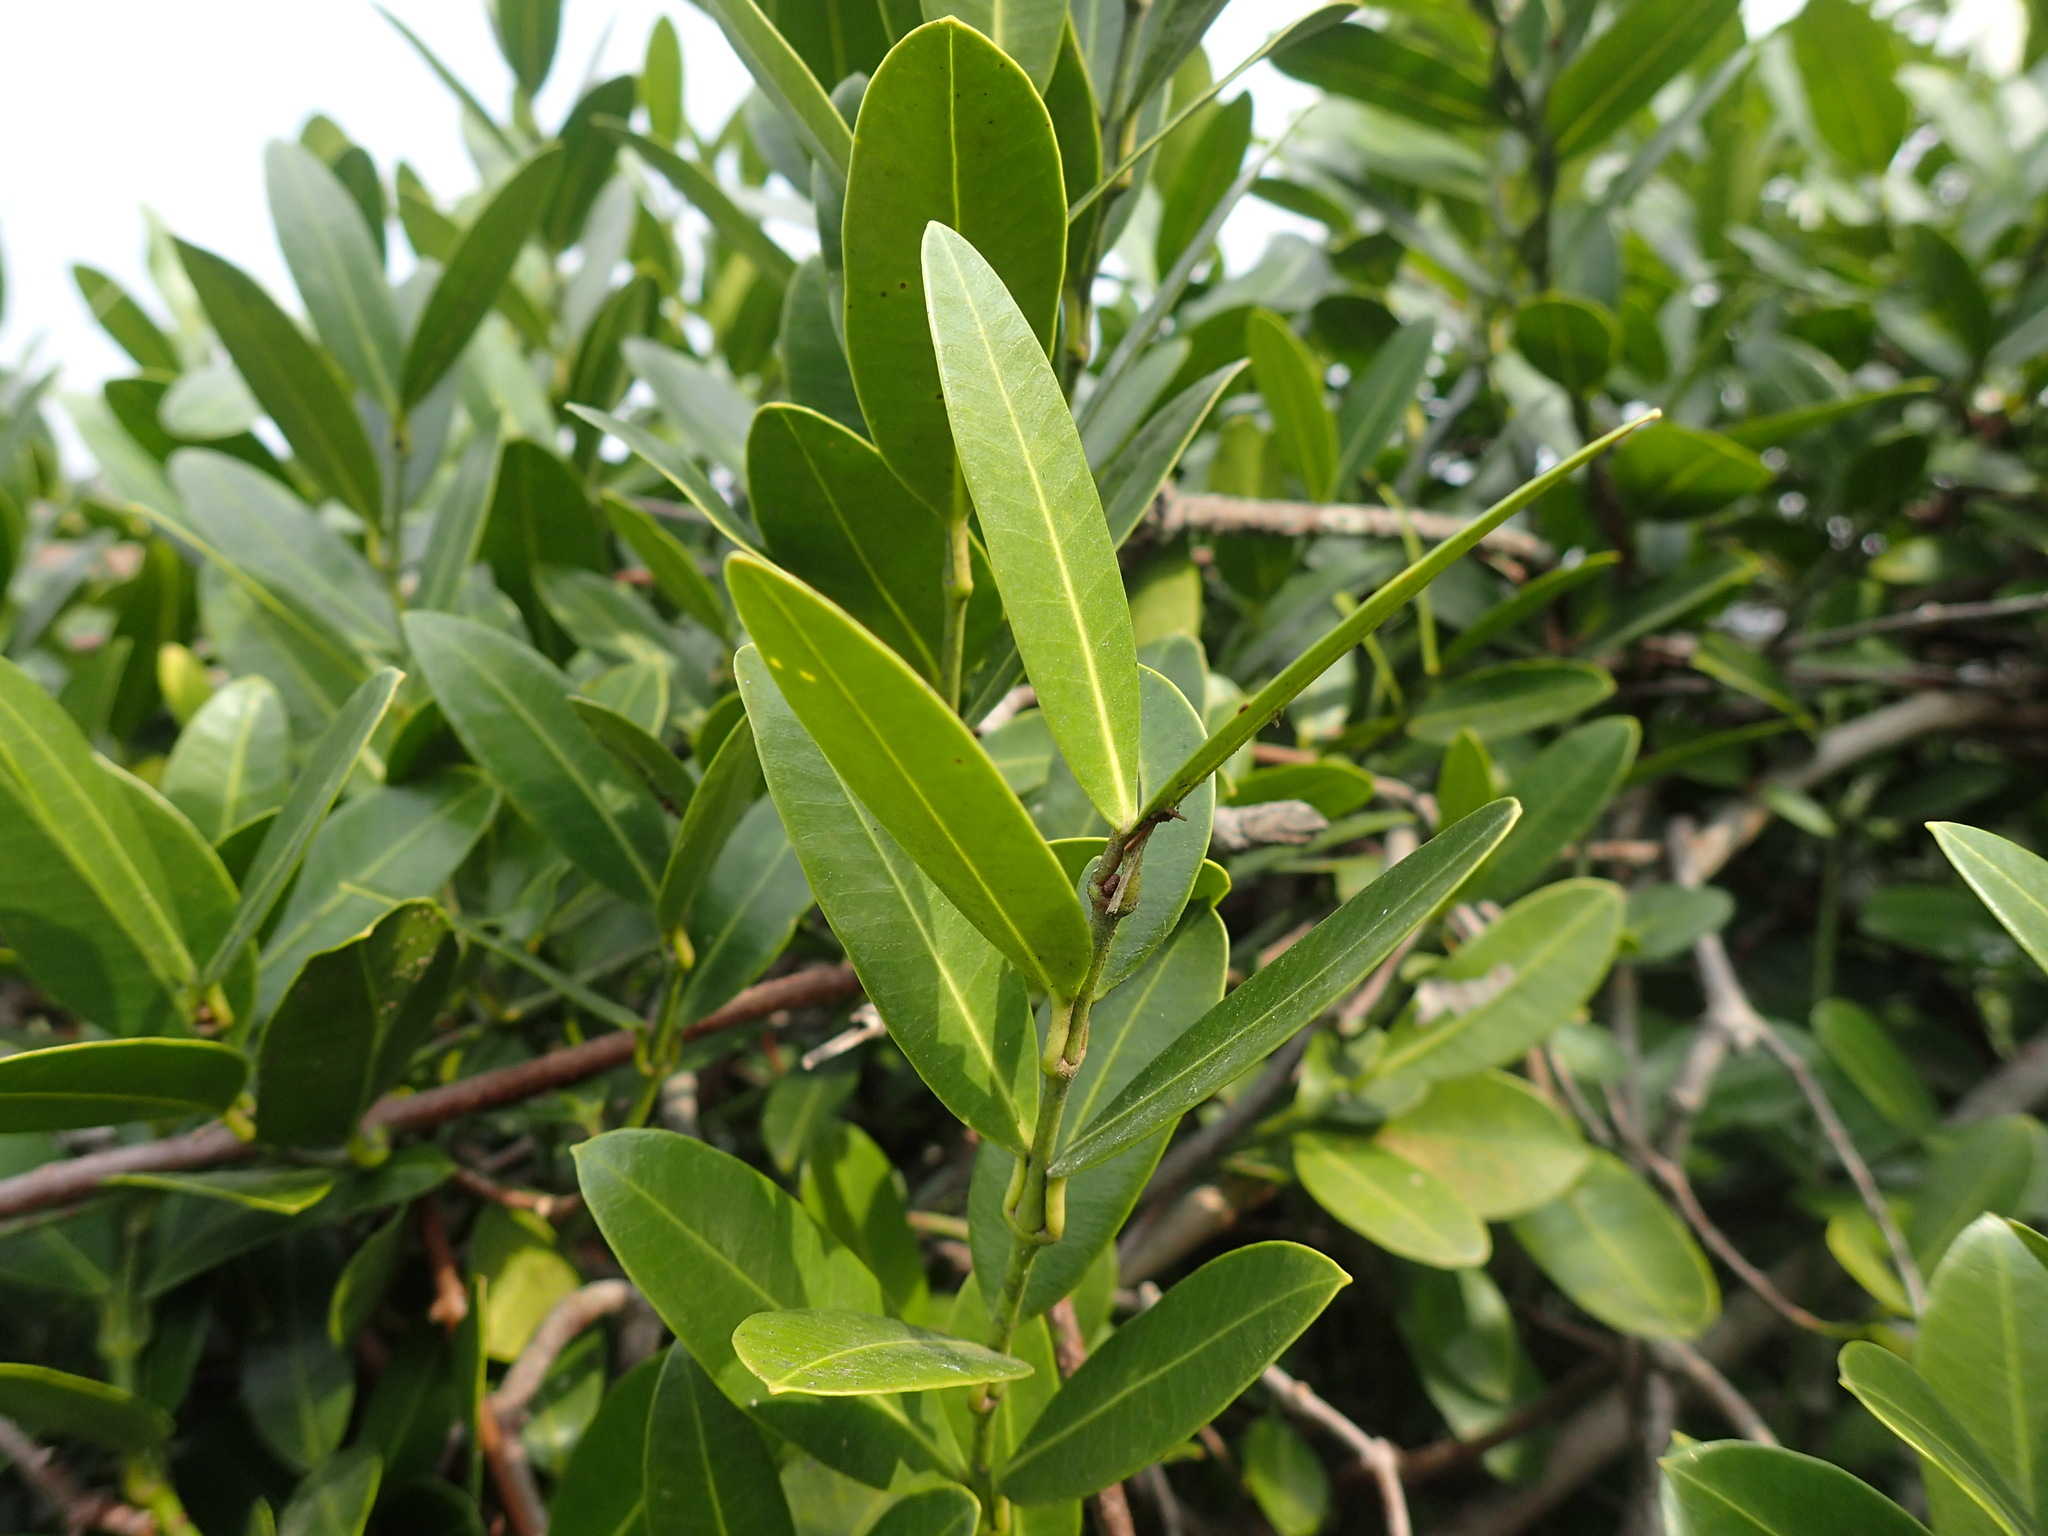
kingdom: Plantae
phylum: Tracheophyta
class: Magnoliopsida
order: Gentianales
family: Apocynaceae
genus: Secamone
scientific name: Secamone alpini
